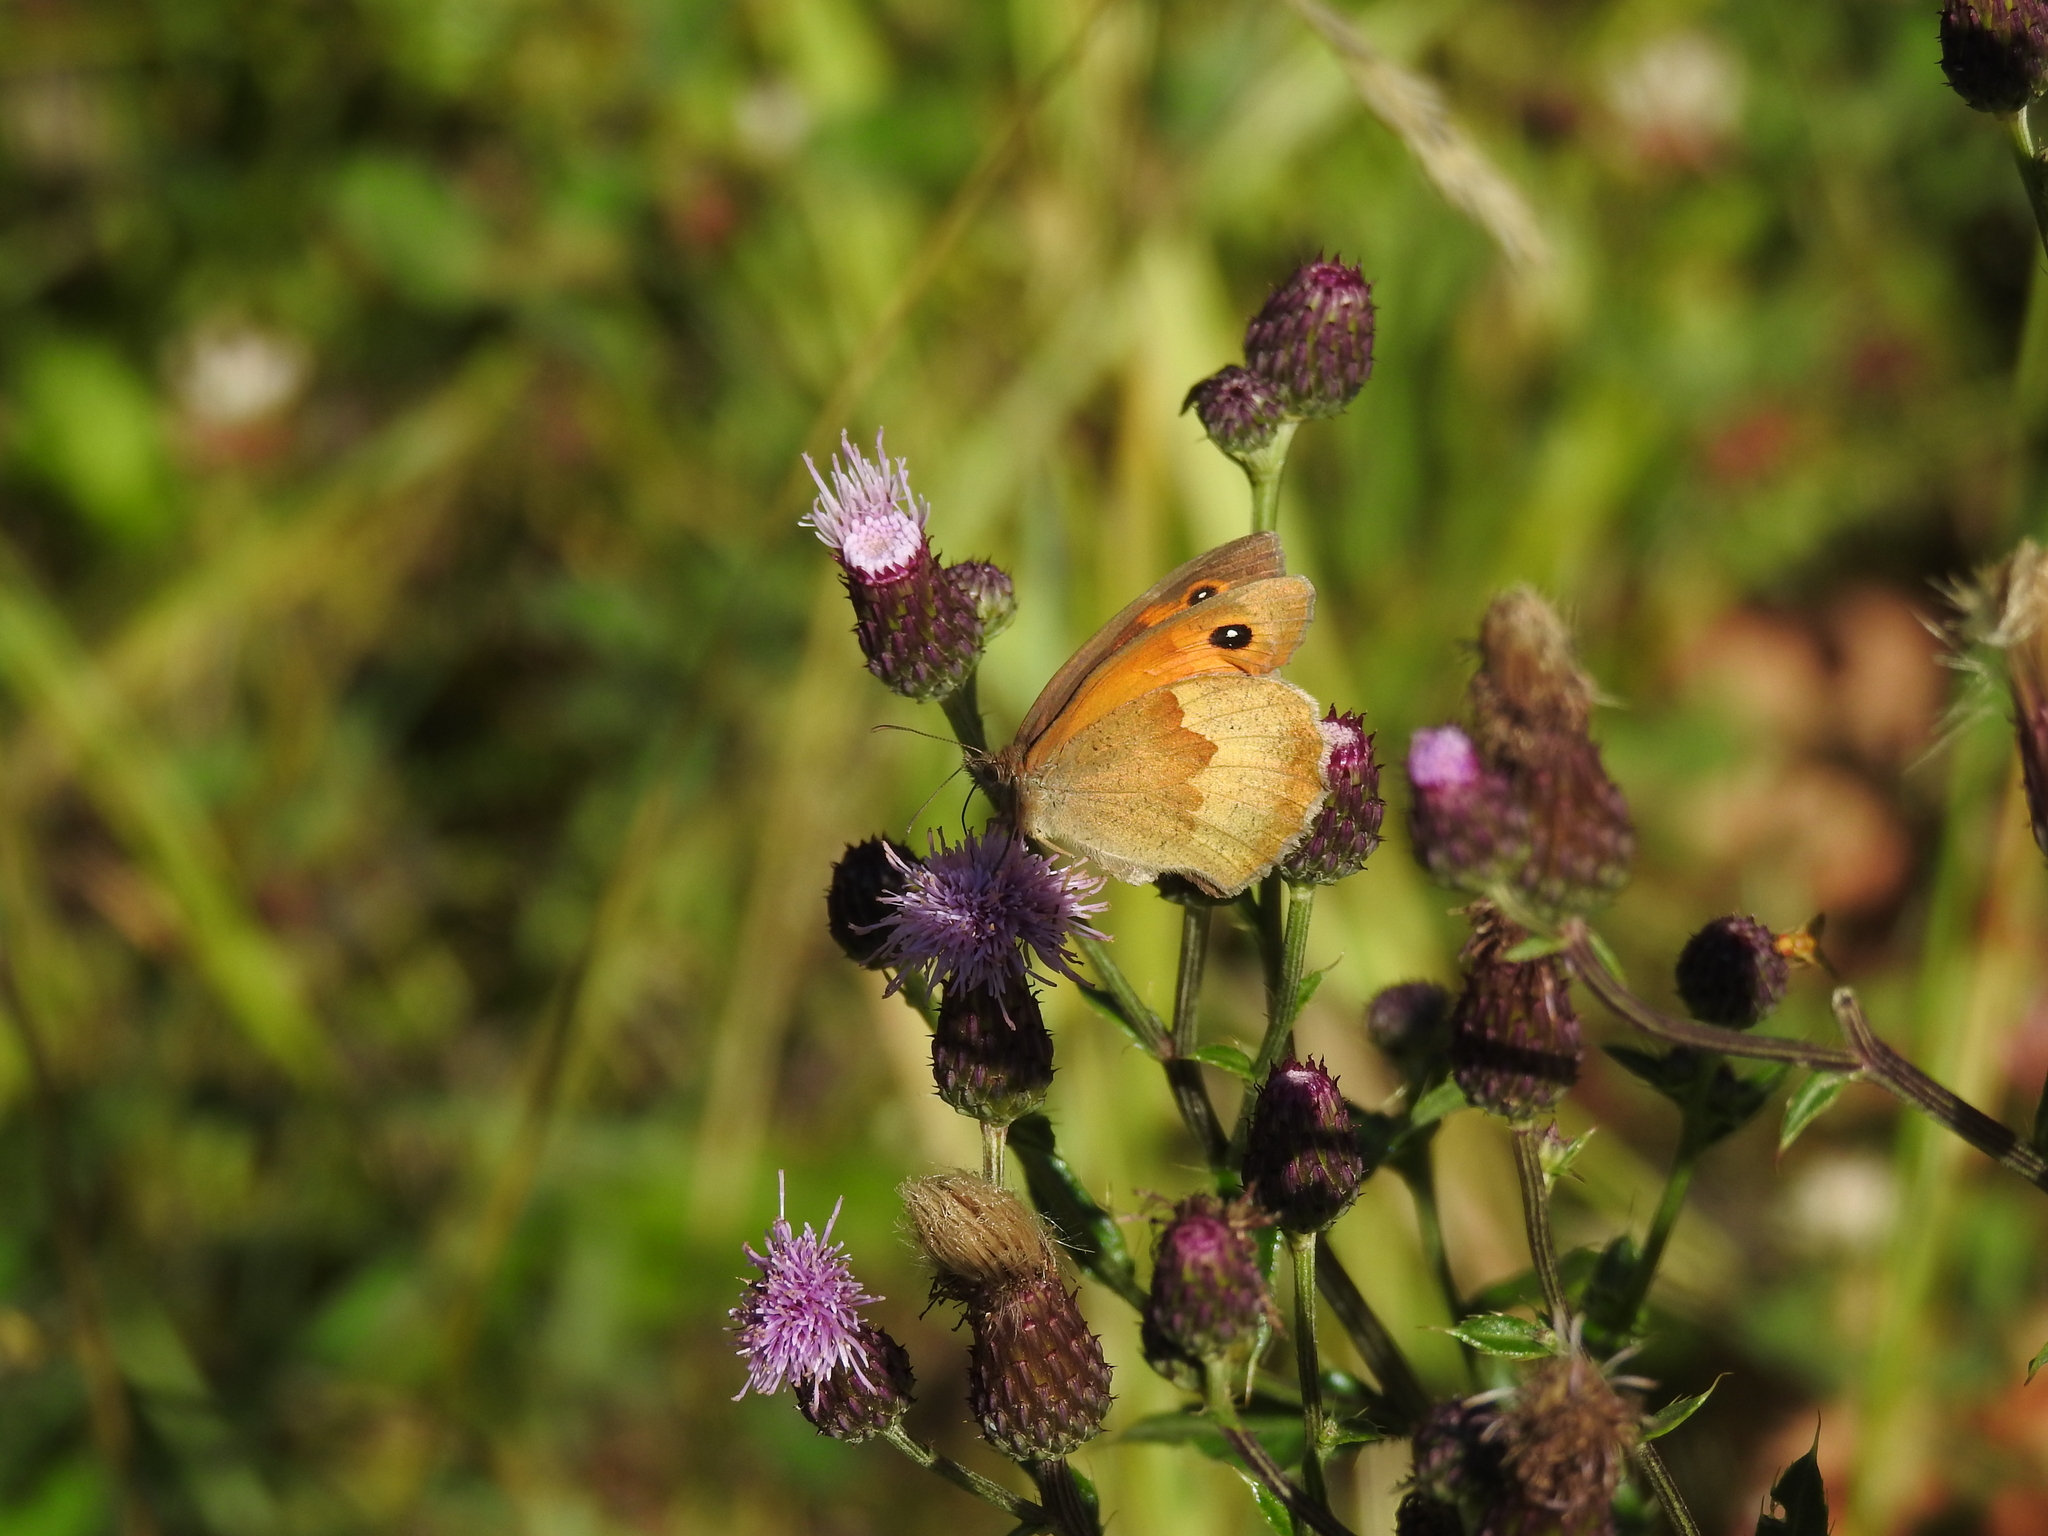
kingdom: Animalia
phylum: Arthropoda
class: Insecta
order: Lepidoptera
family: Nymphalidae
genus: Maniola
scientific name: Maniola jurtina
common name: Meadow brown
